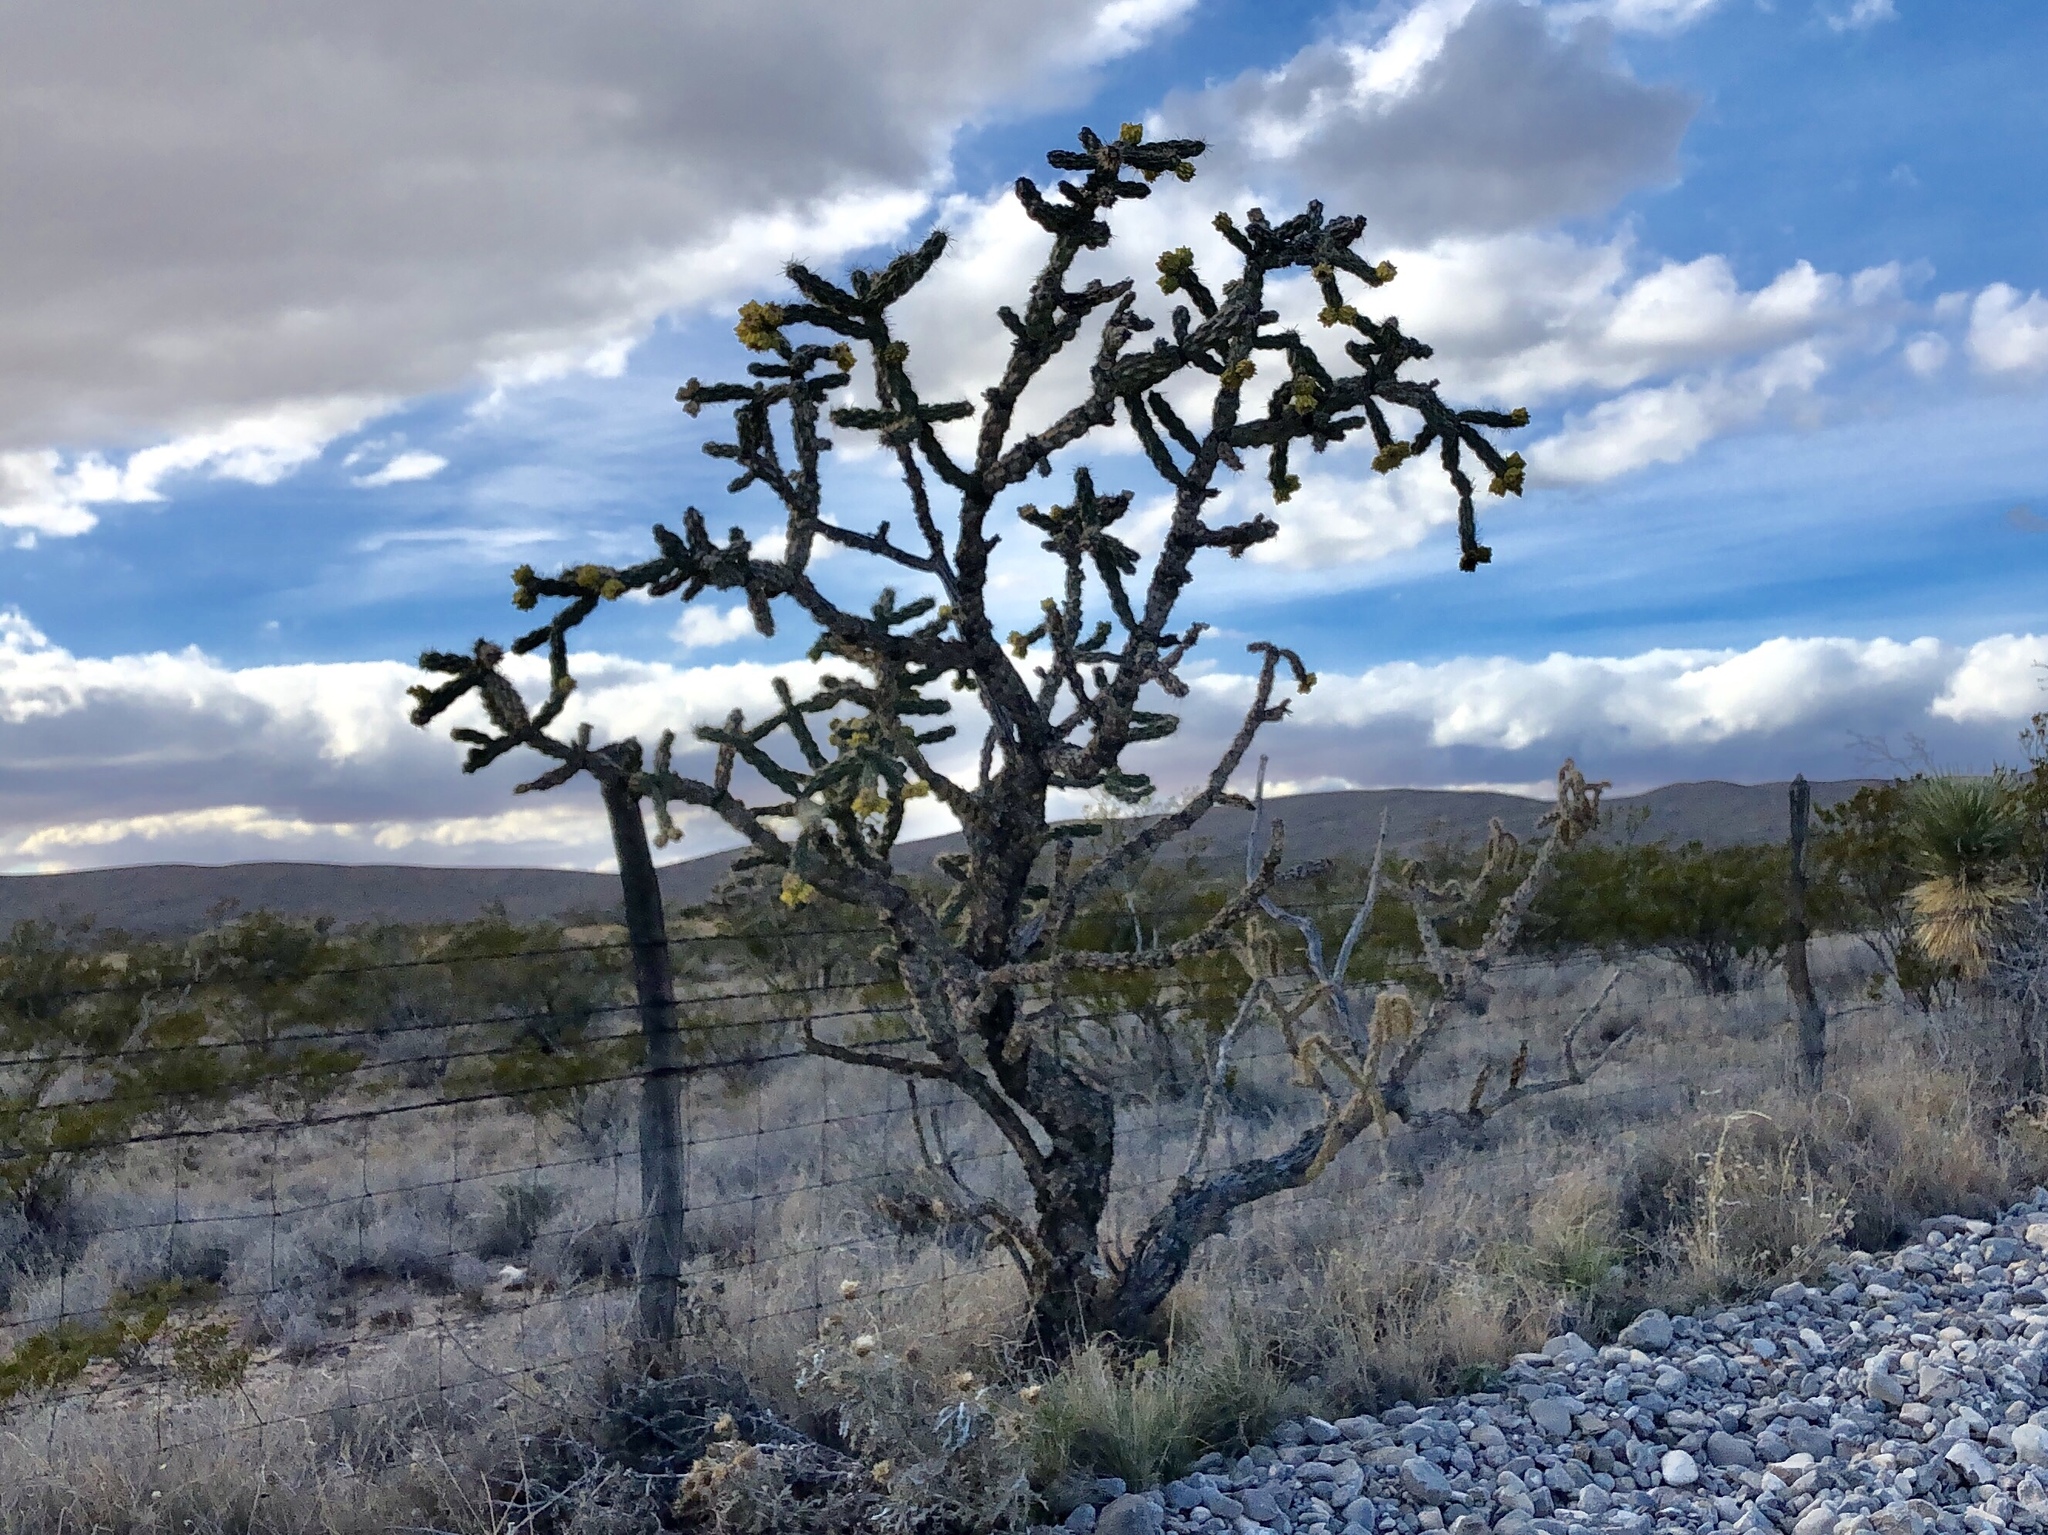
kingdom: Plantae
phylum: Tracheophyta
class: Magnoliopsida
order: Caryophyllales
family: Cactaceae
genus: Cylindropuntia
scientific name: Cylindropuntia imbricata
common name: Candelabrum cactus
